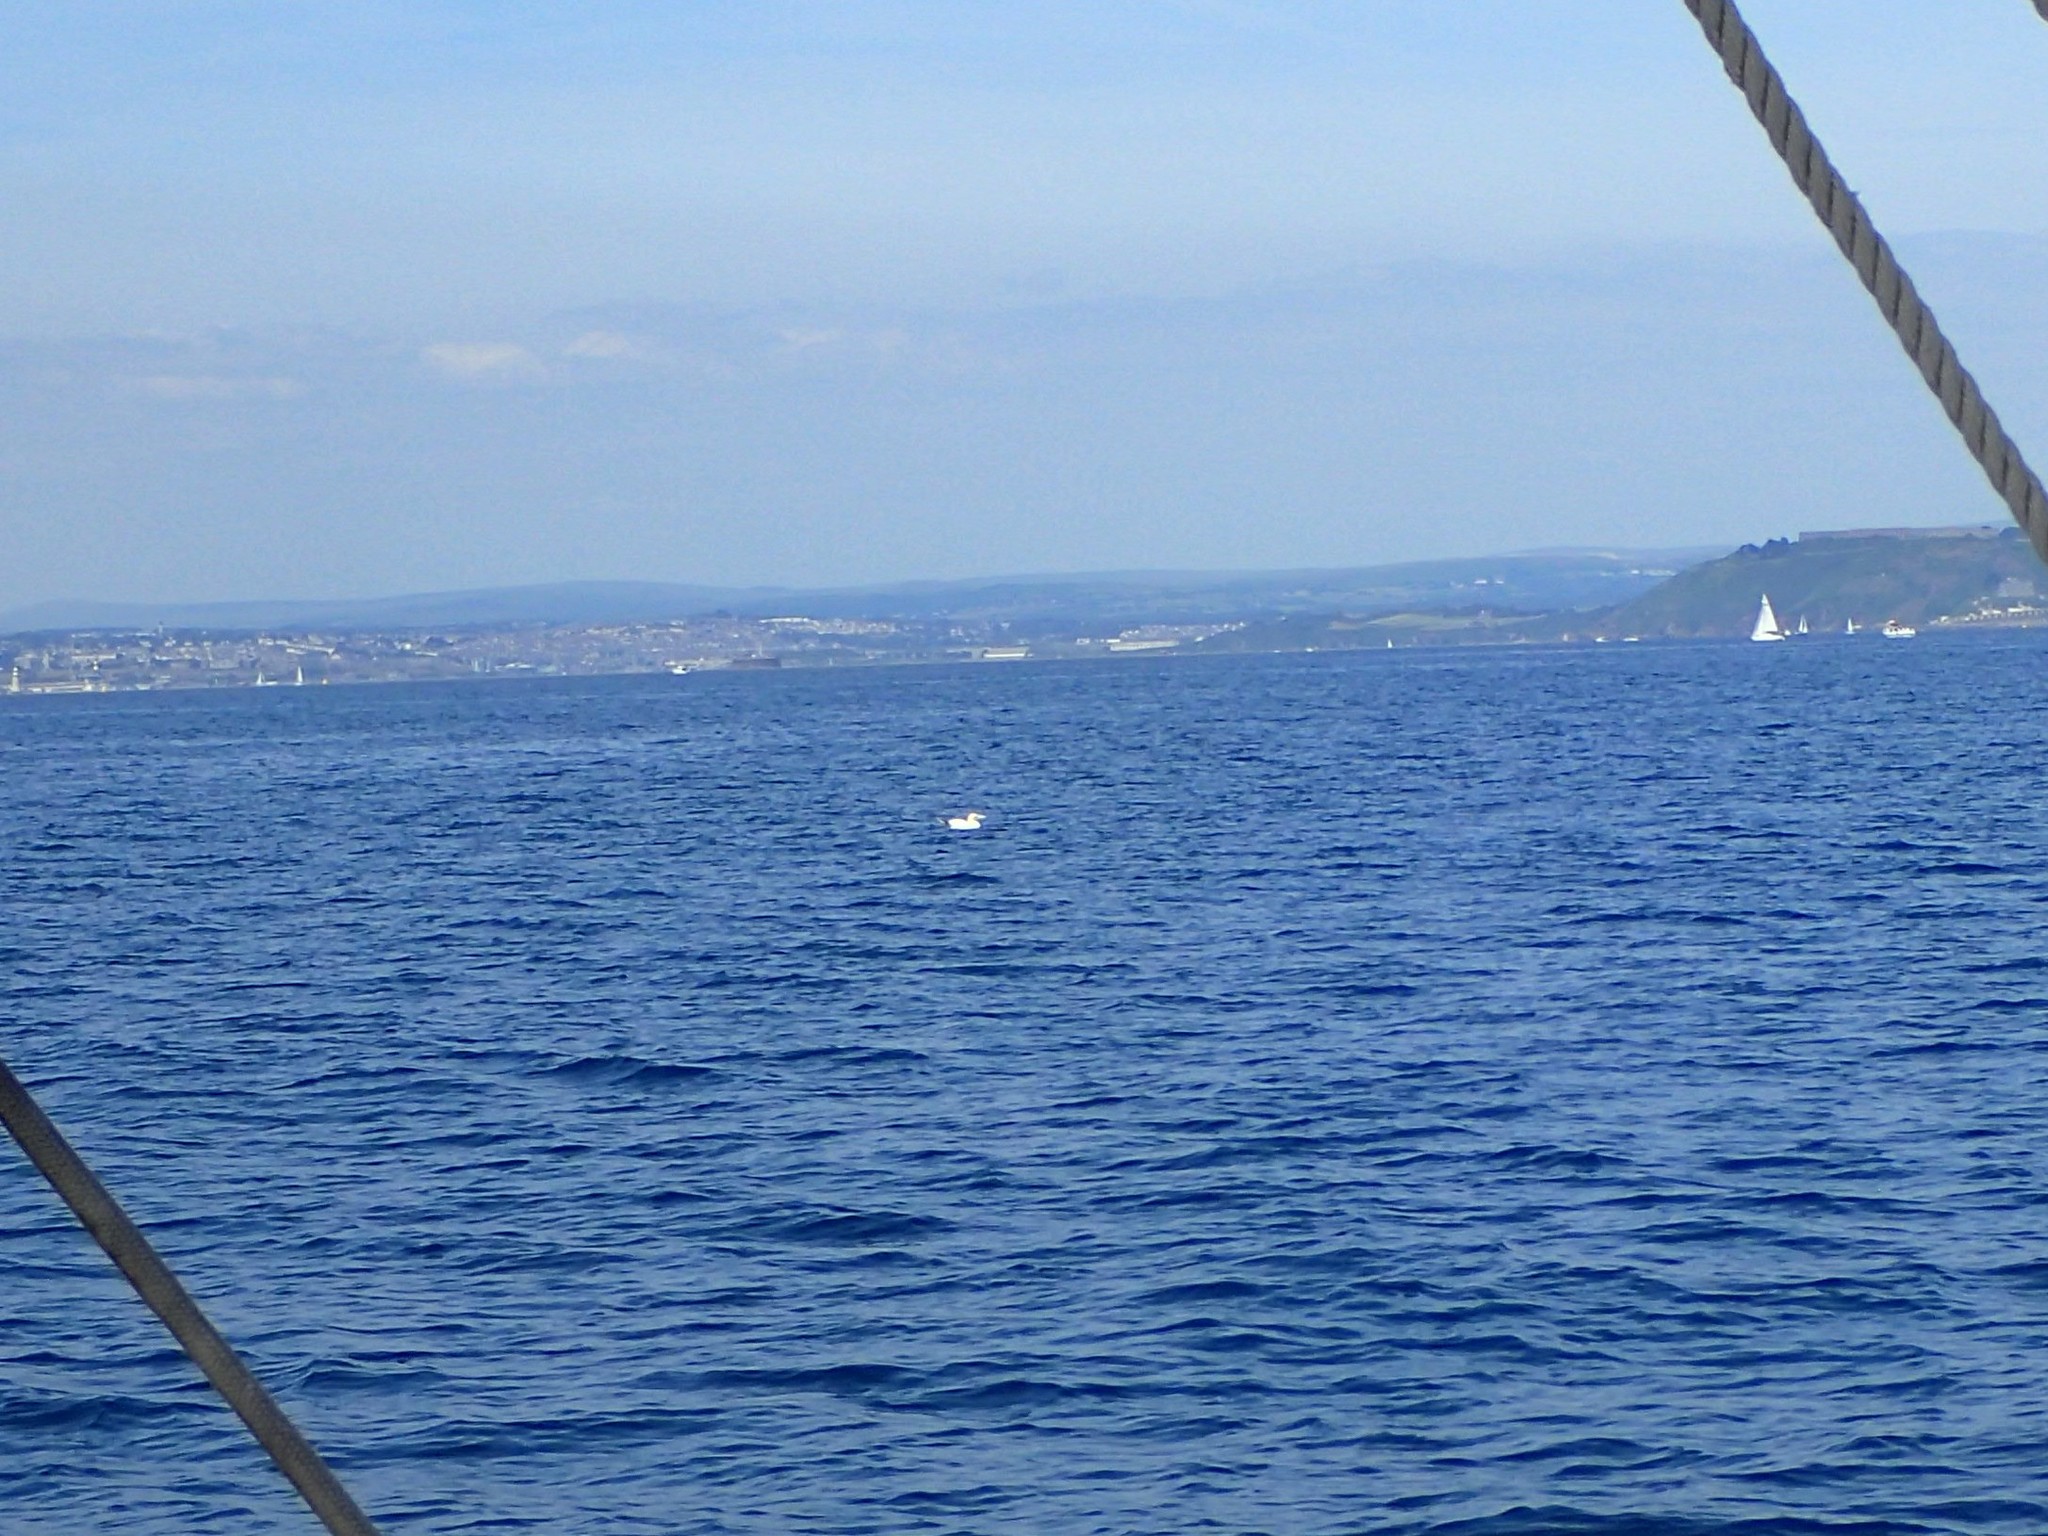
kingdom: Animalia
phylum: Chordata
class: Aves
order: Suliformes
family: Sulidae
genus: Morus
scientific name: Morus bassanus
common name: Northern gannet
